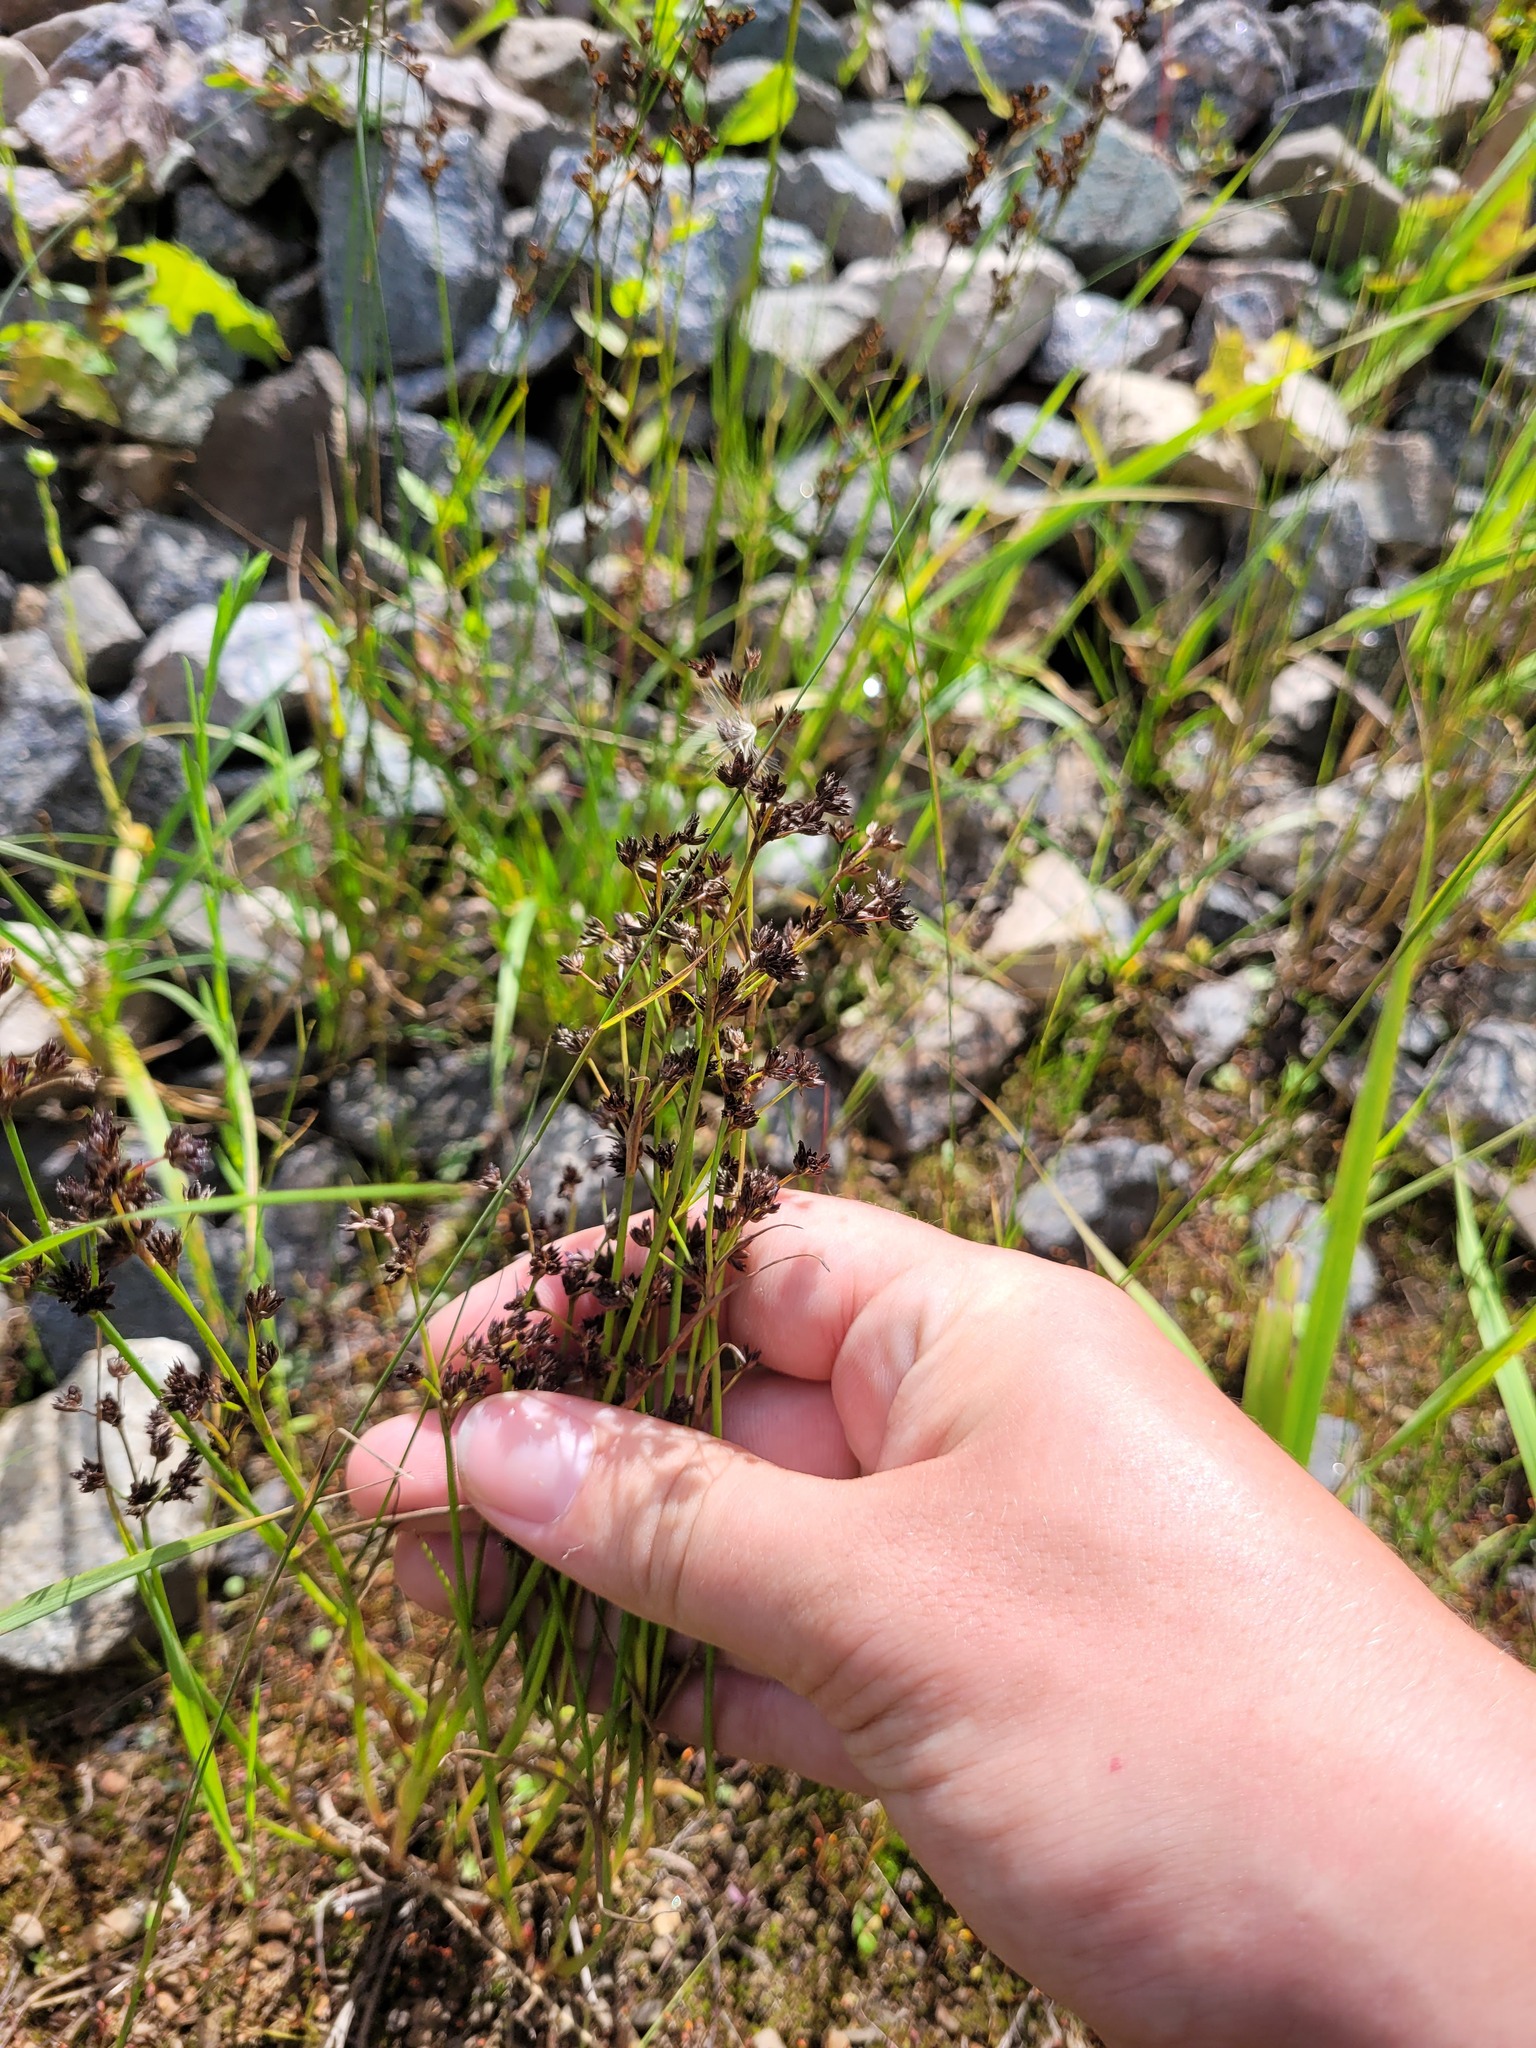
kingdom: Plantae
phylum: Tracheophyta
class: Liliopsida
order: Poales
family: Juncaceae
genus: Juncus
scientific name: Juncus articulatus
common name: Jointed rush
